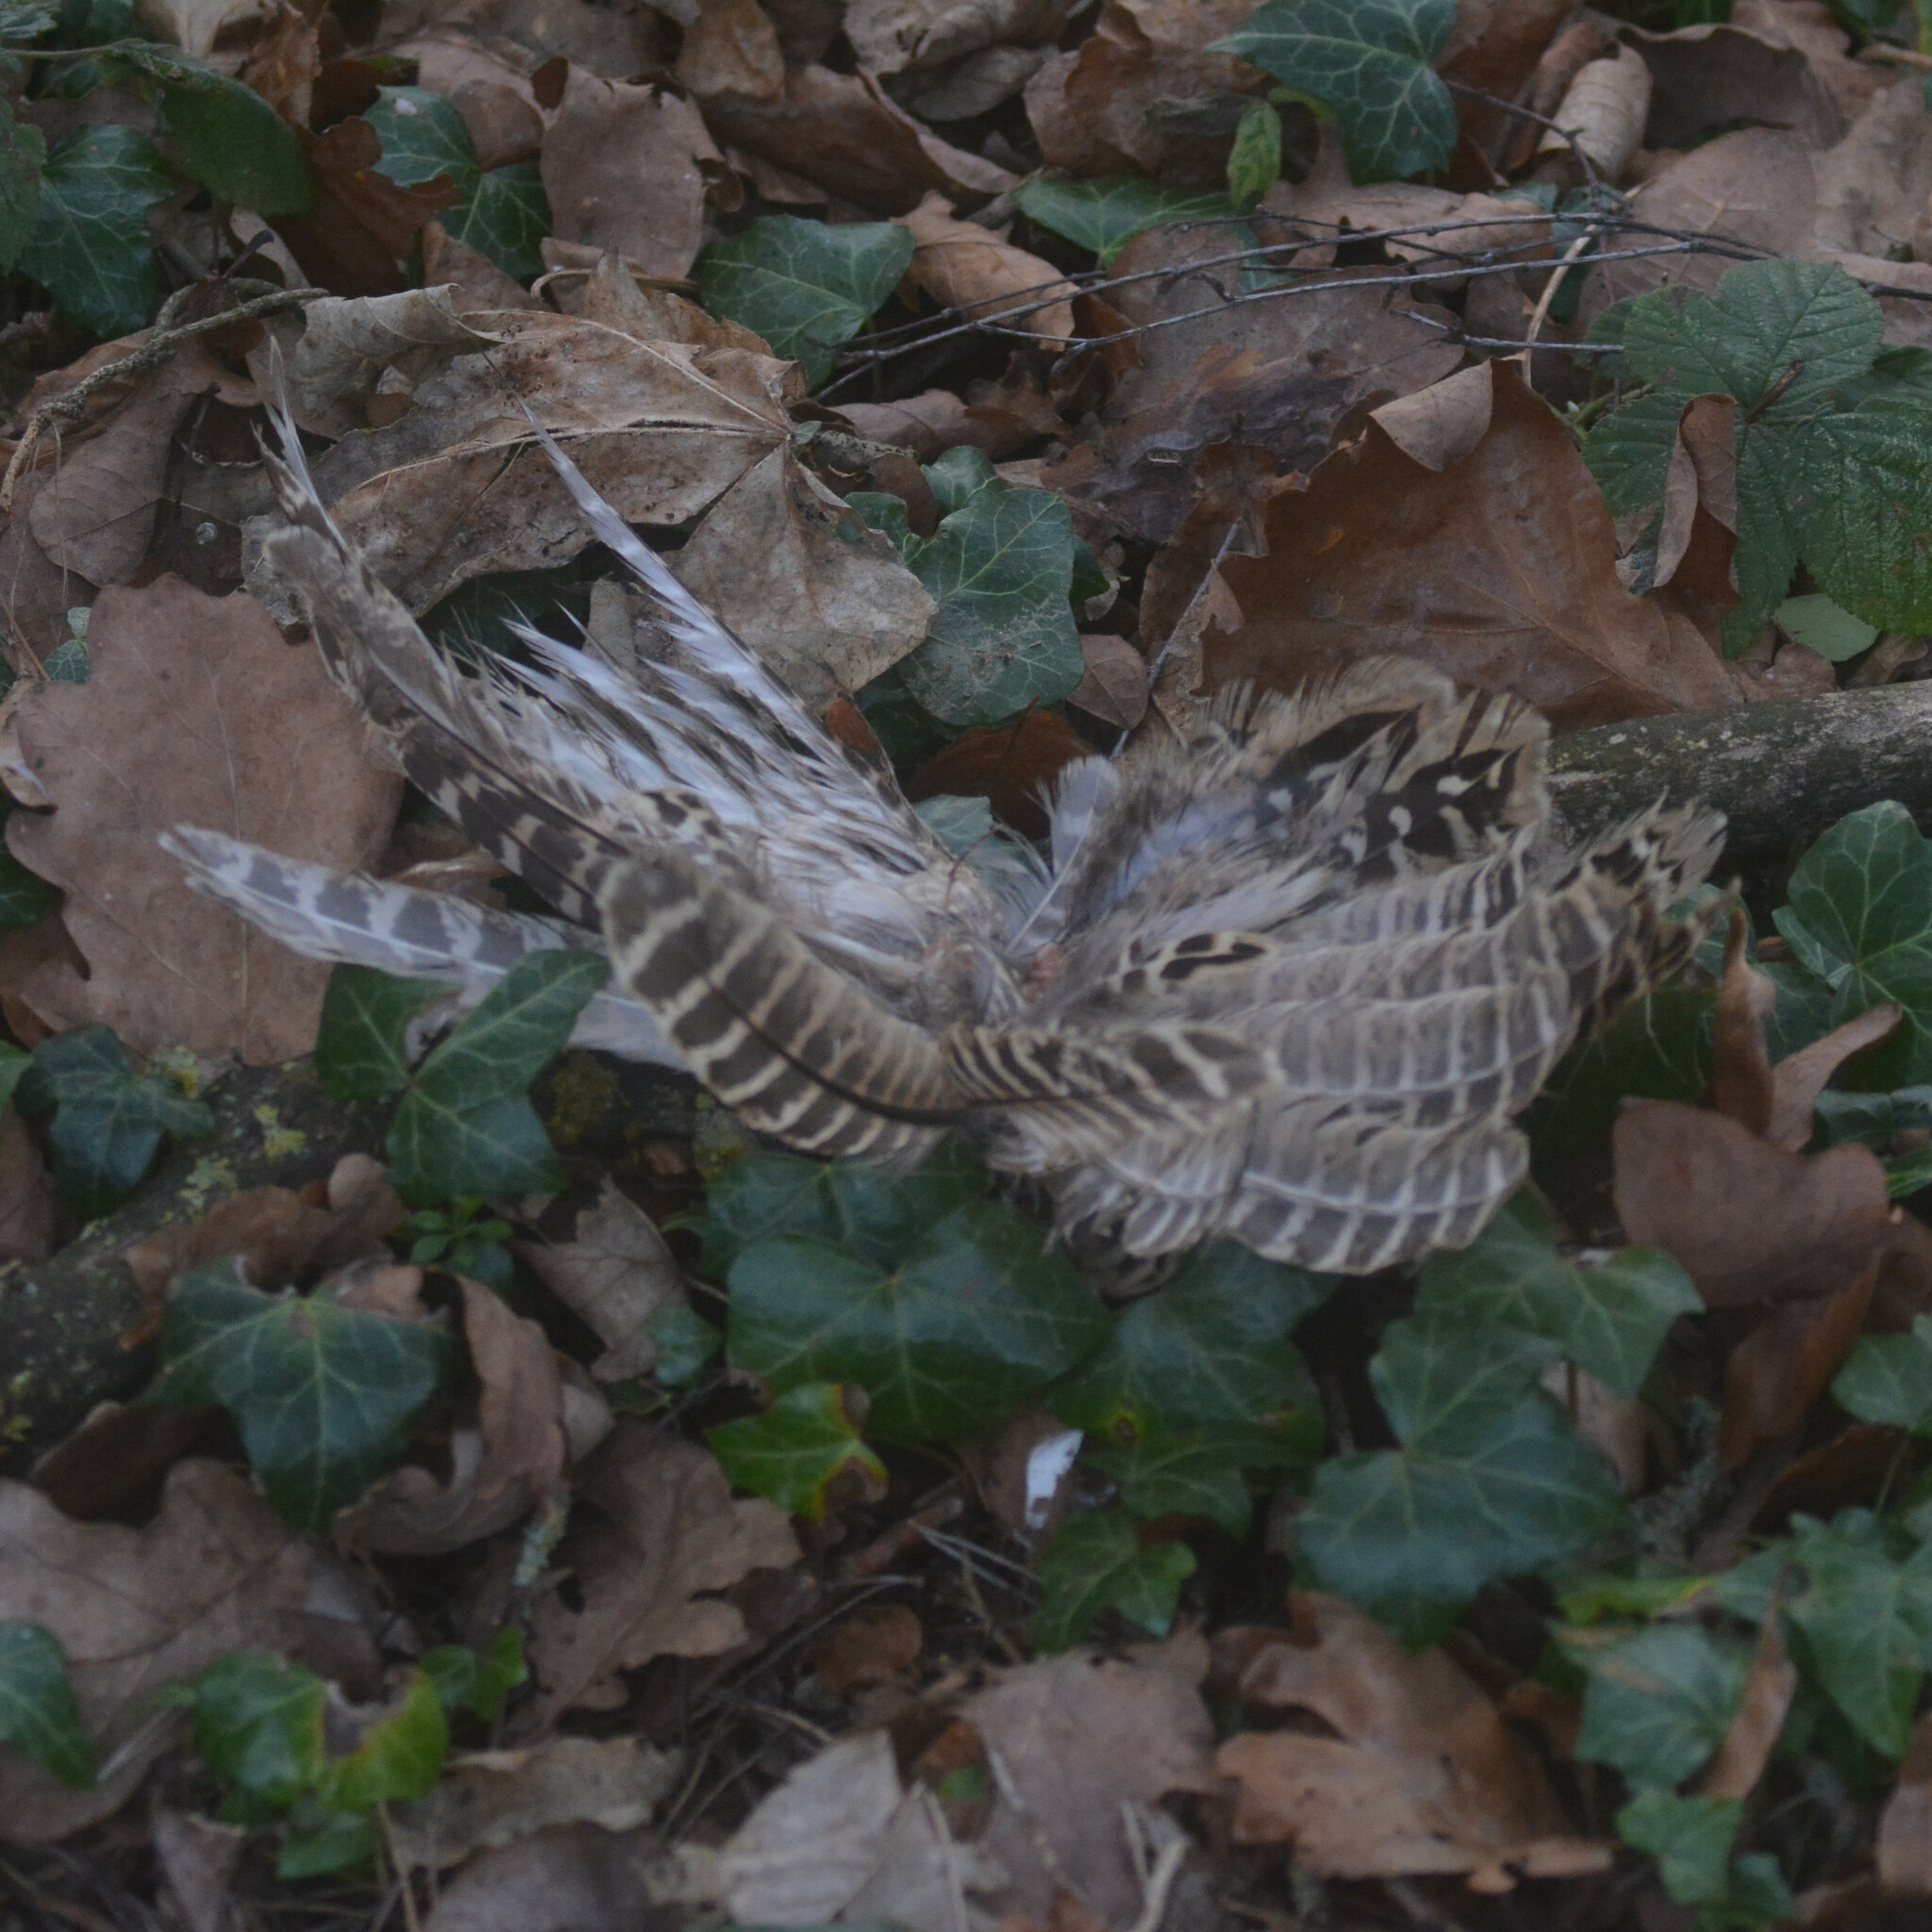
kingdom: Animalia
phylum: Chordata
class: Aves
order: Galliformes
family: Phasianidae
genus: Phasianus
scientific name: Phasianus colchicus
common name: Common pheasant
